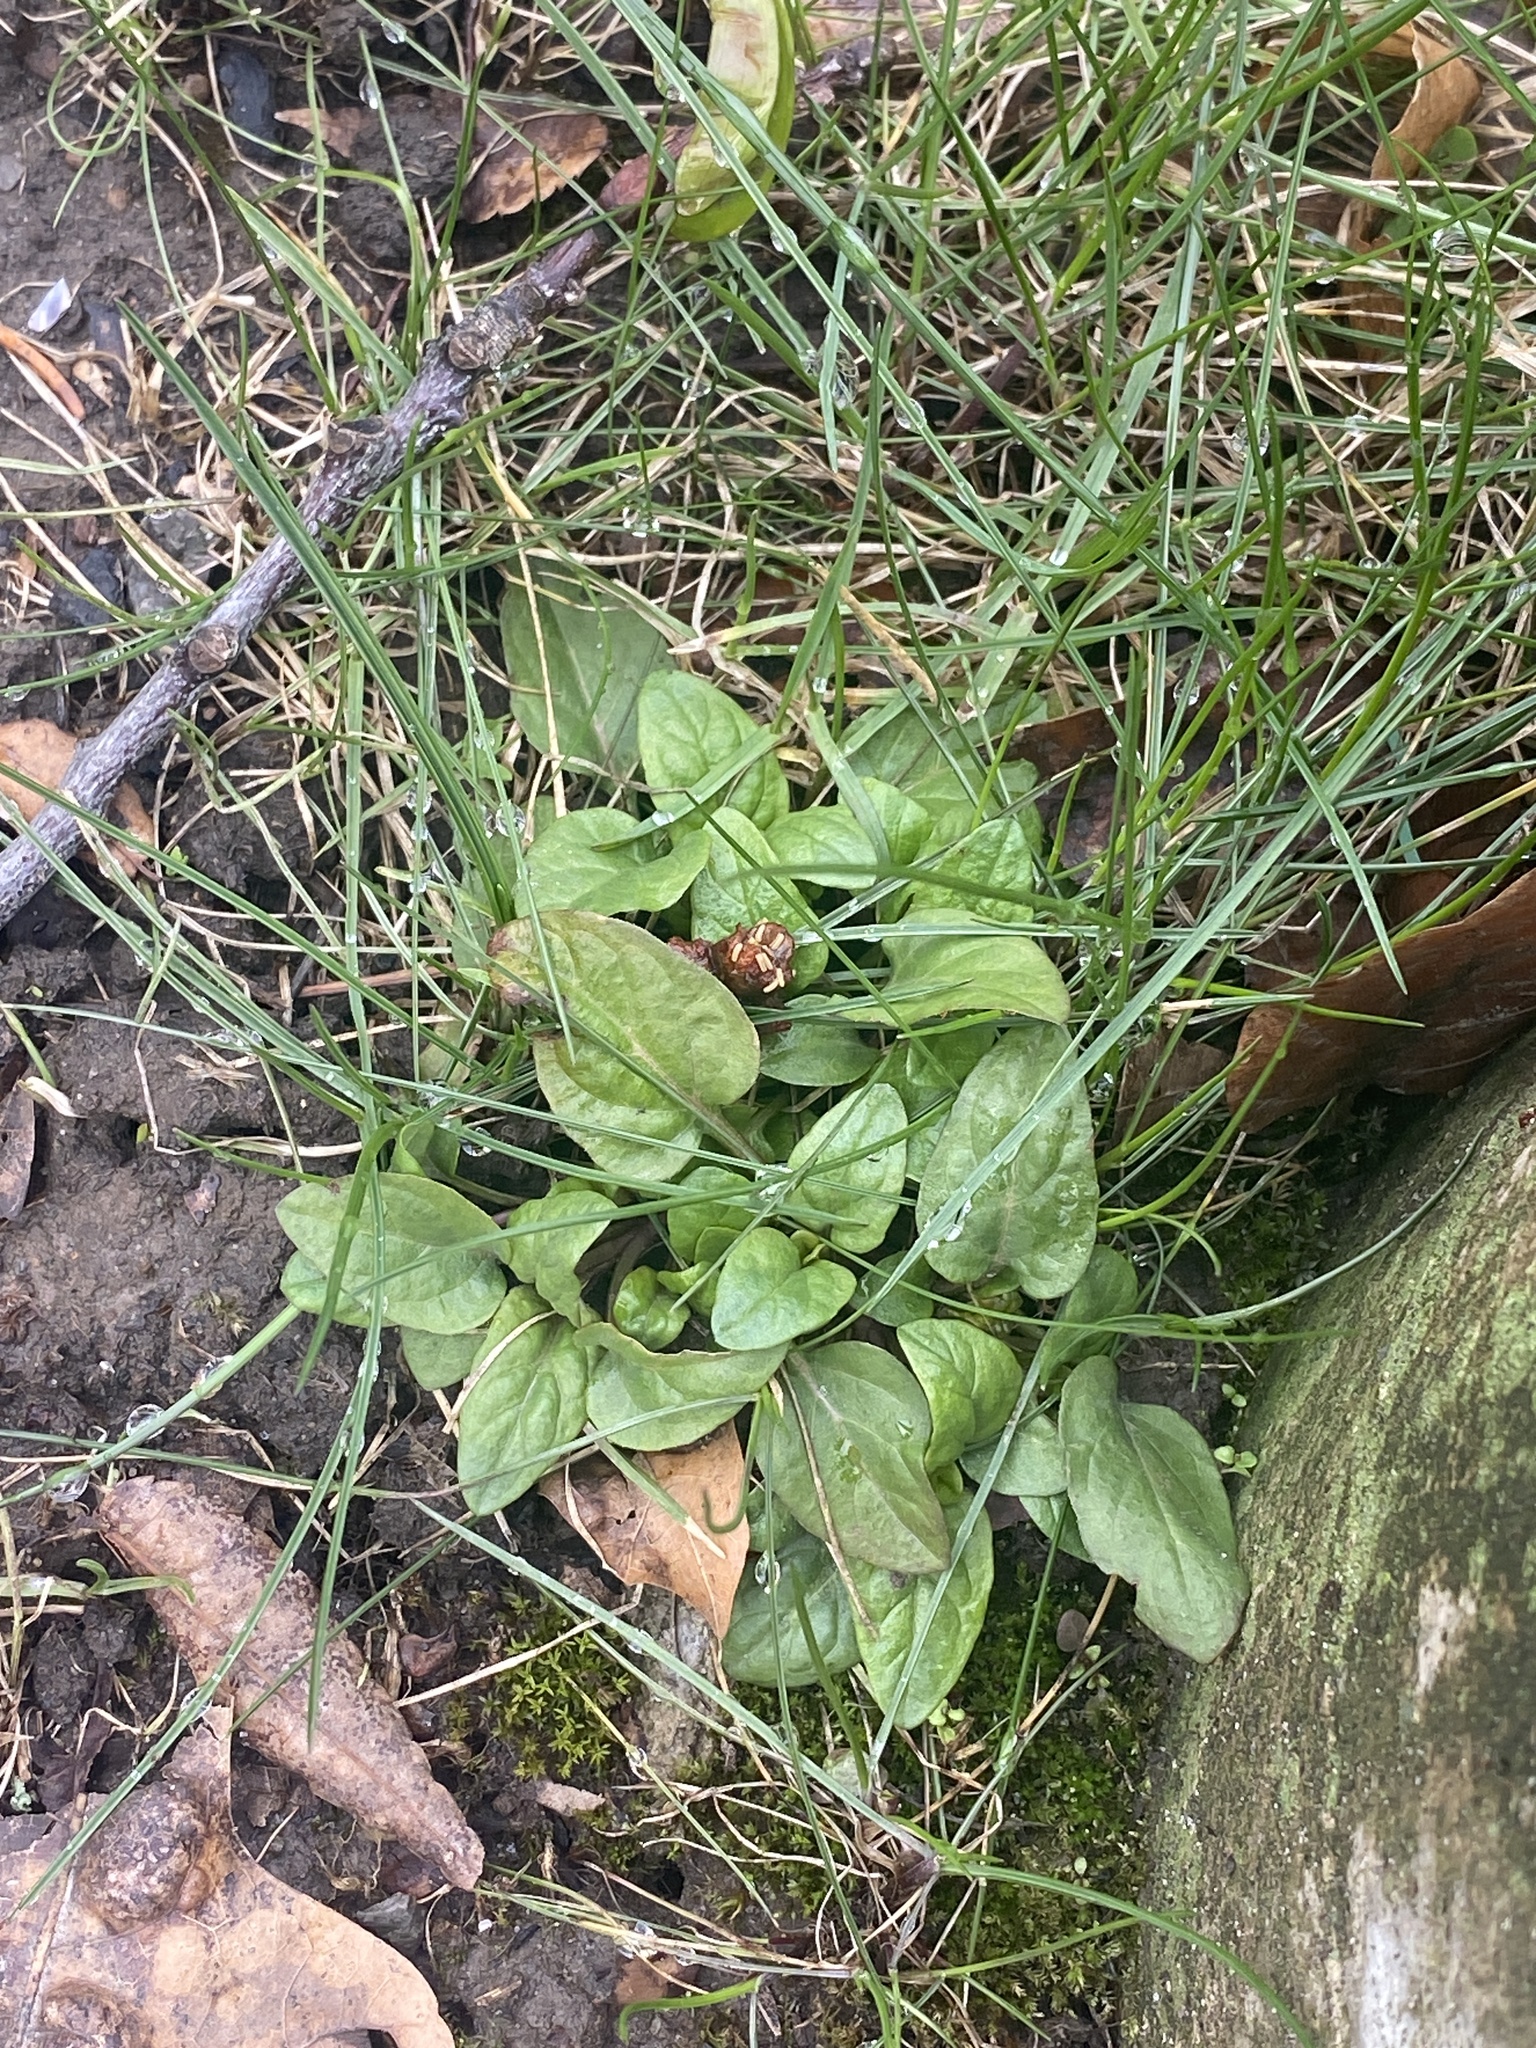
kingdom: Plantae
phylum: Tracheophyta
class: Magnoliopsida
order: Lamiales
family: Lamiaceae
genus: Prunella
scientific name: Prunella vulgaris
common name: Heal-all
